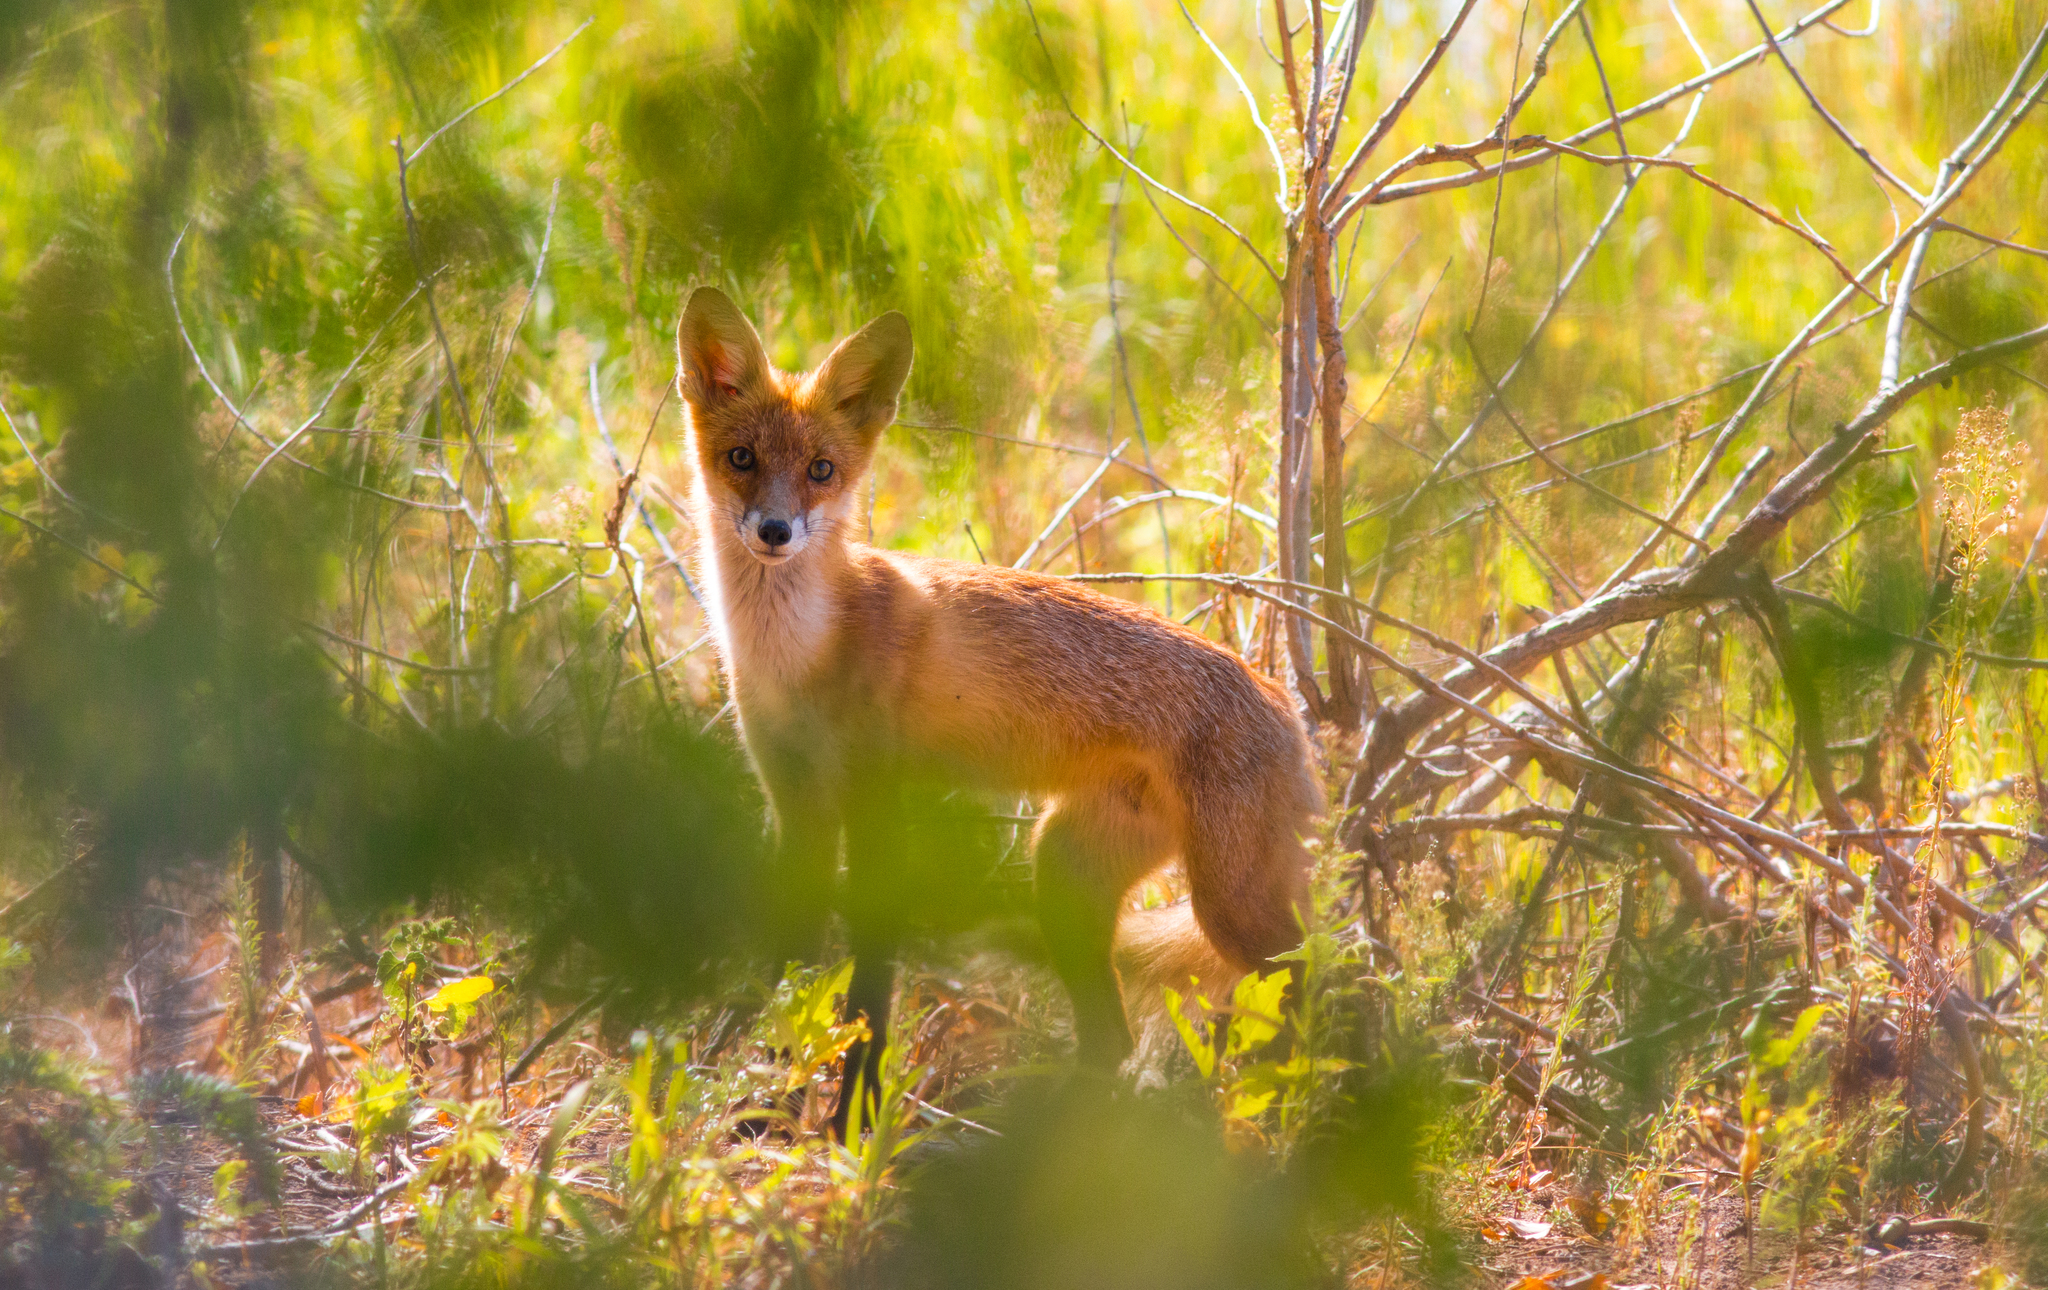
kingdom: Animalia
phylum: Chordata
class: Mammalia
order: Carnivora
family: Canidae
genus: Vulpes
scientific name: Vulpes vulpes
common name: Red fox
